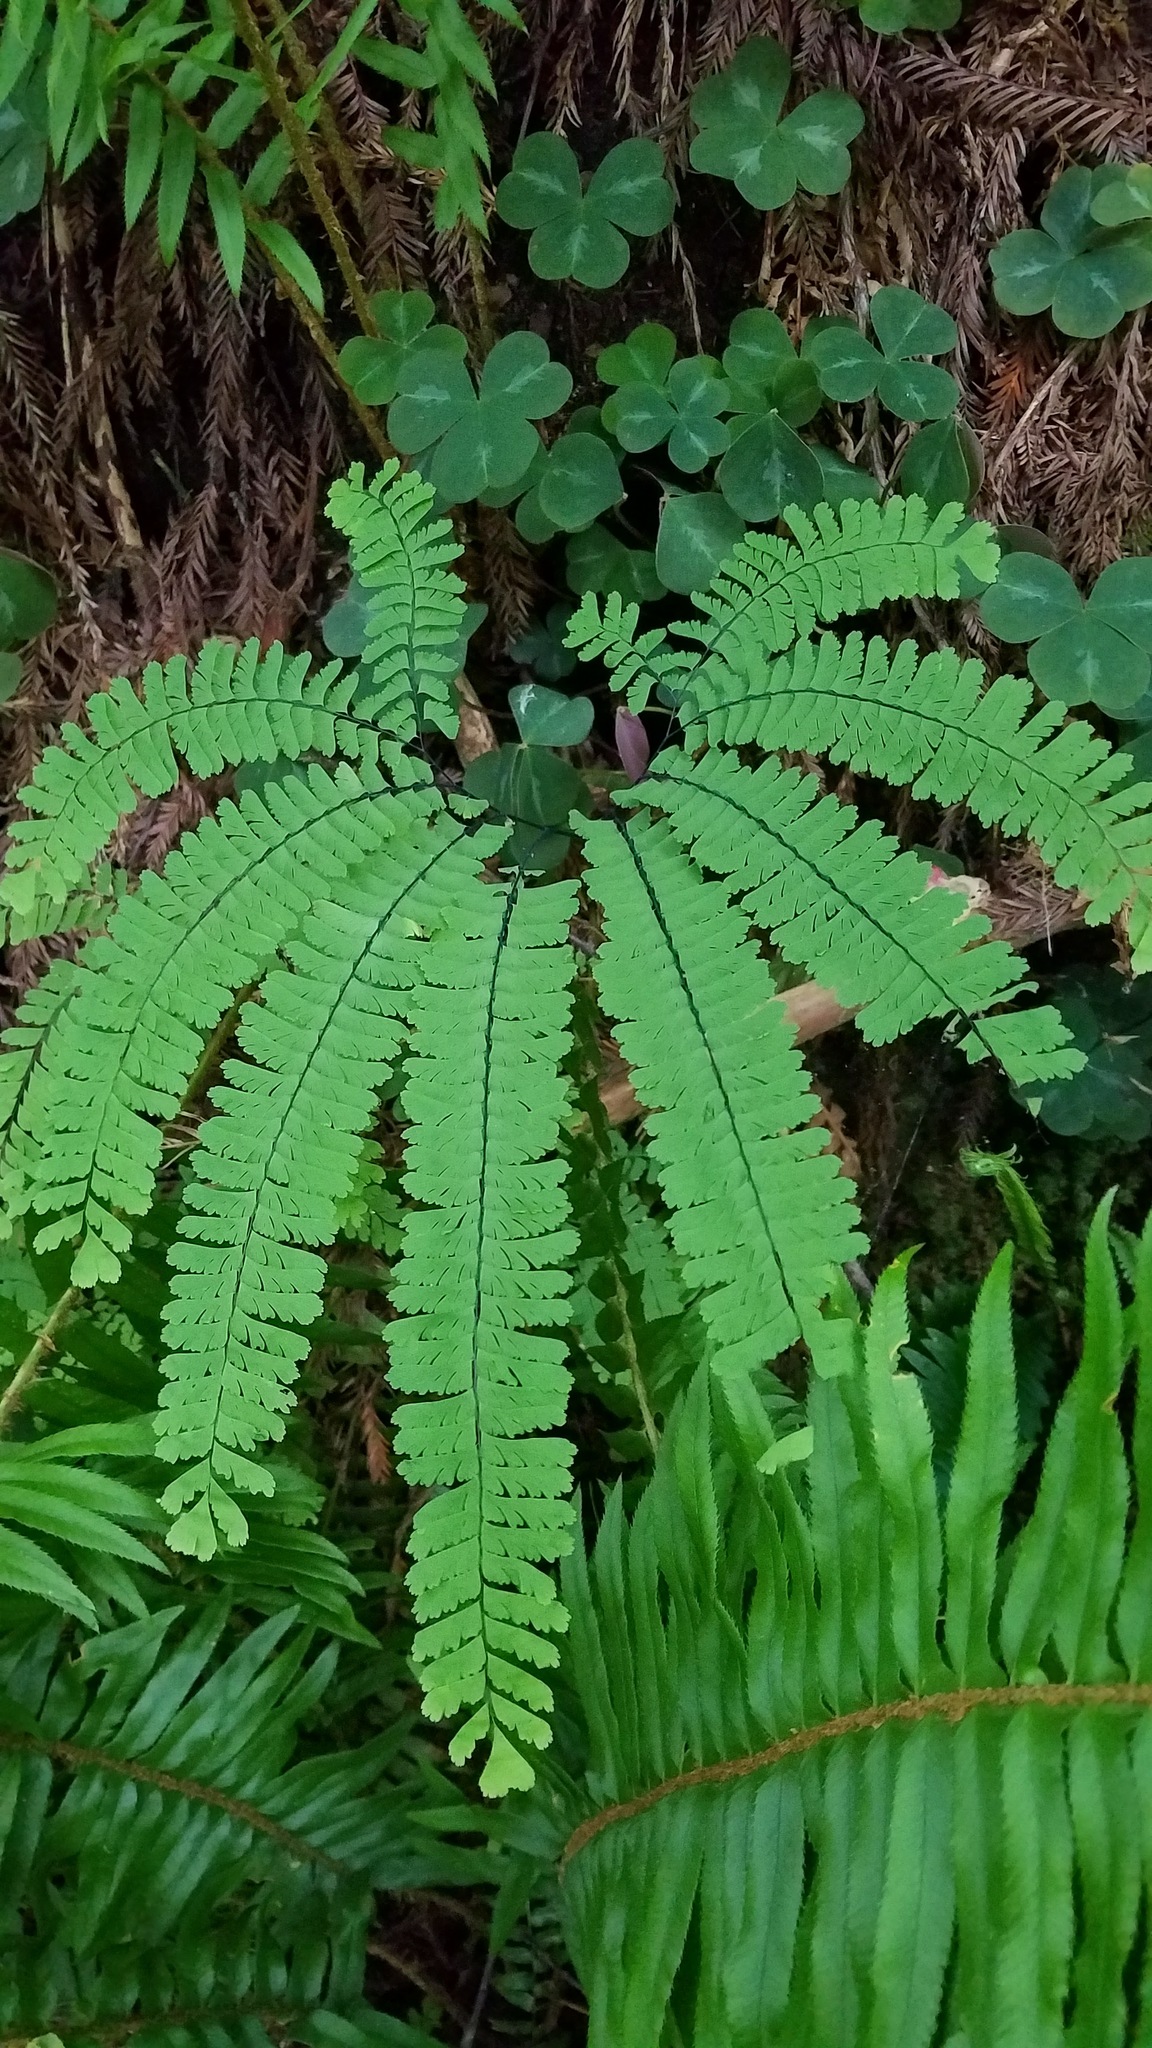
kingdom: Plantae
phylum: Tracheophyta
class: Polypodiopsida
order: Polypodiales
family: Pteridaceae
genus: Adiantum
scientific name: Adiantum aleuticum
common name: Aleutian maidenhair fern
